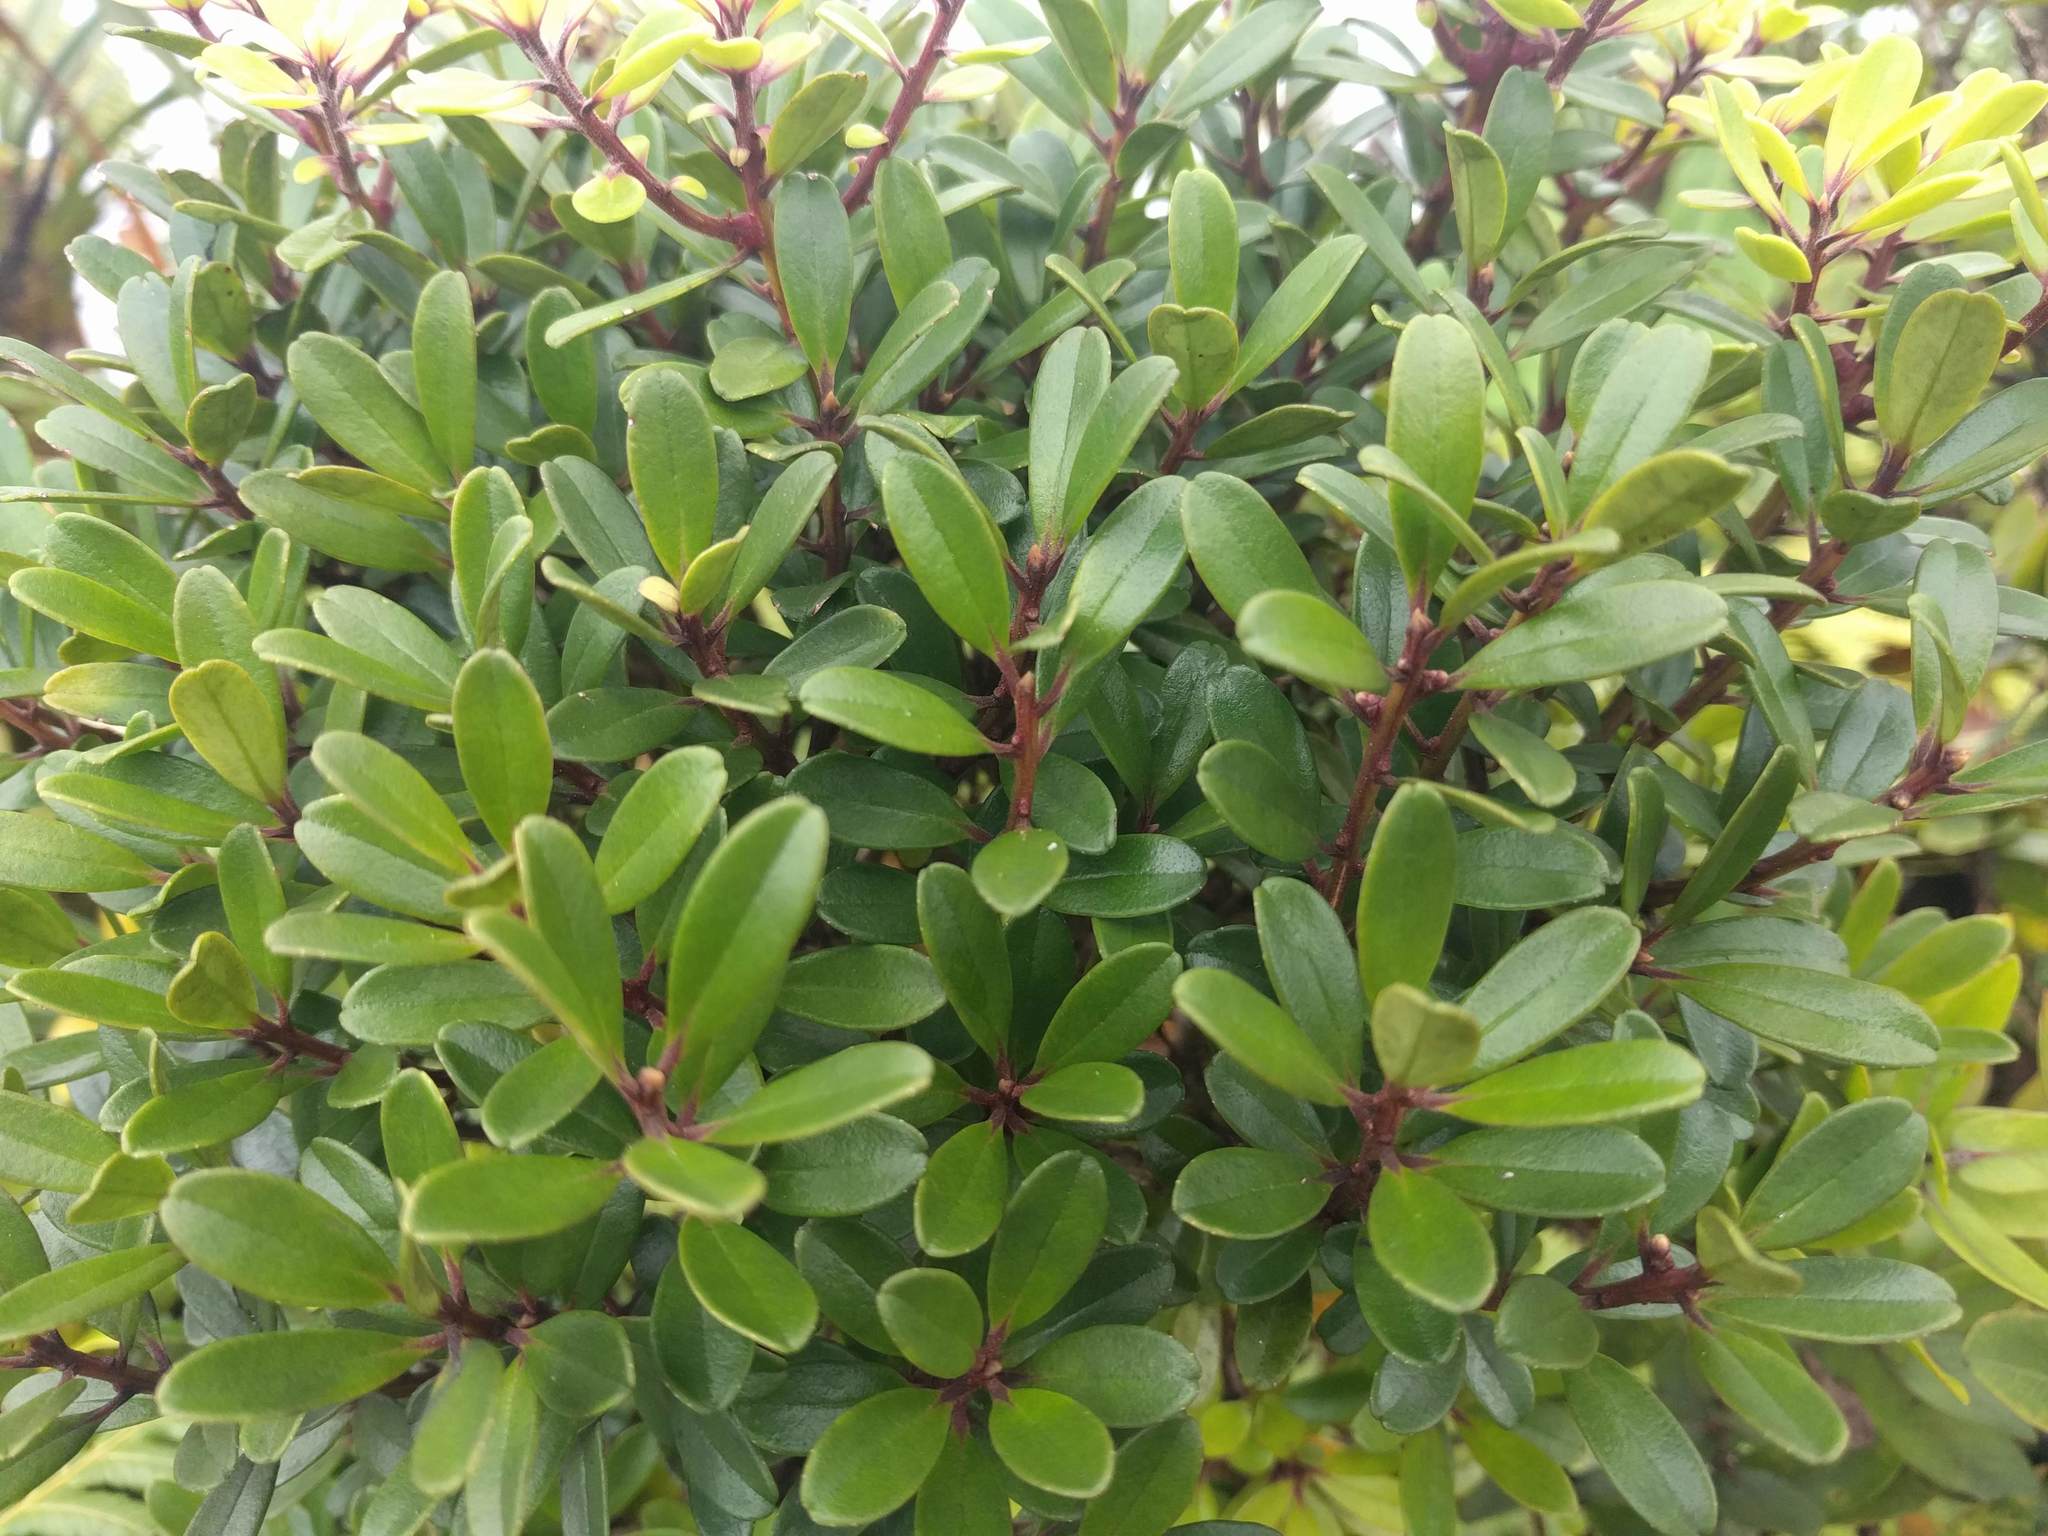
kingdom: Plantae
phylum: Tracheophyta
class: Magnoliopsida
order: Ericales
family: Primulaceae
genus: Myrsine
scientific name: Myrsine sandwicensis
